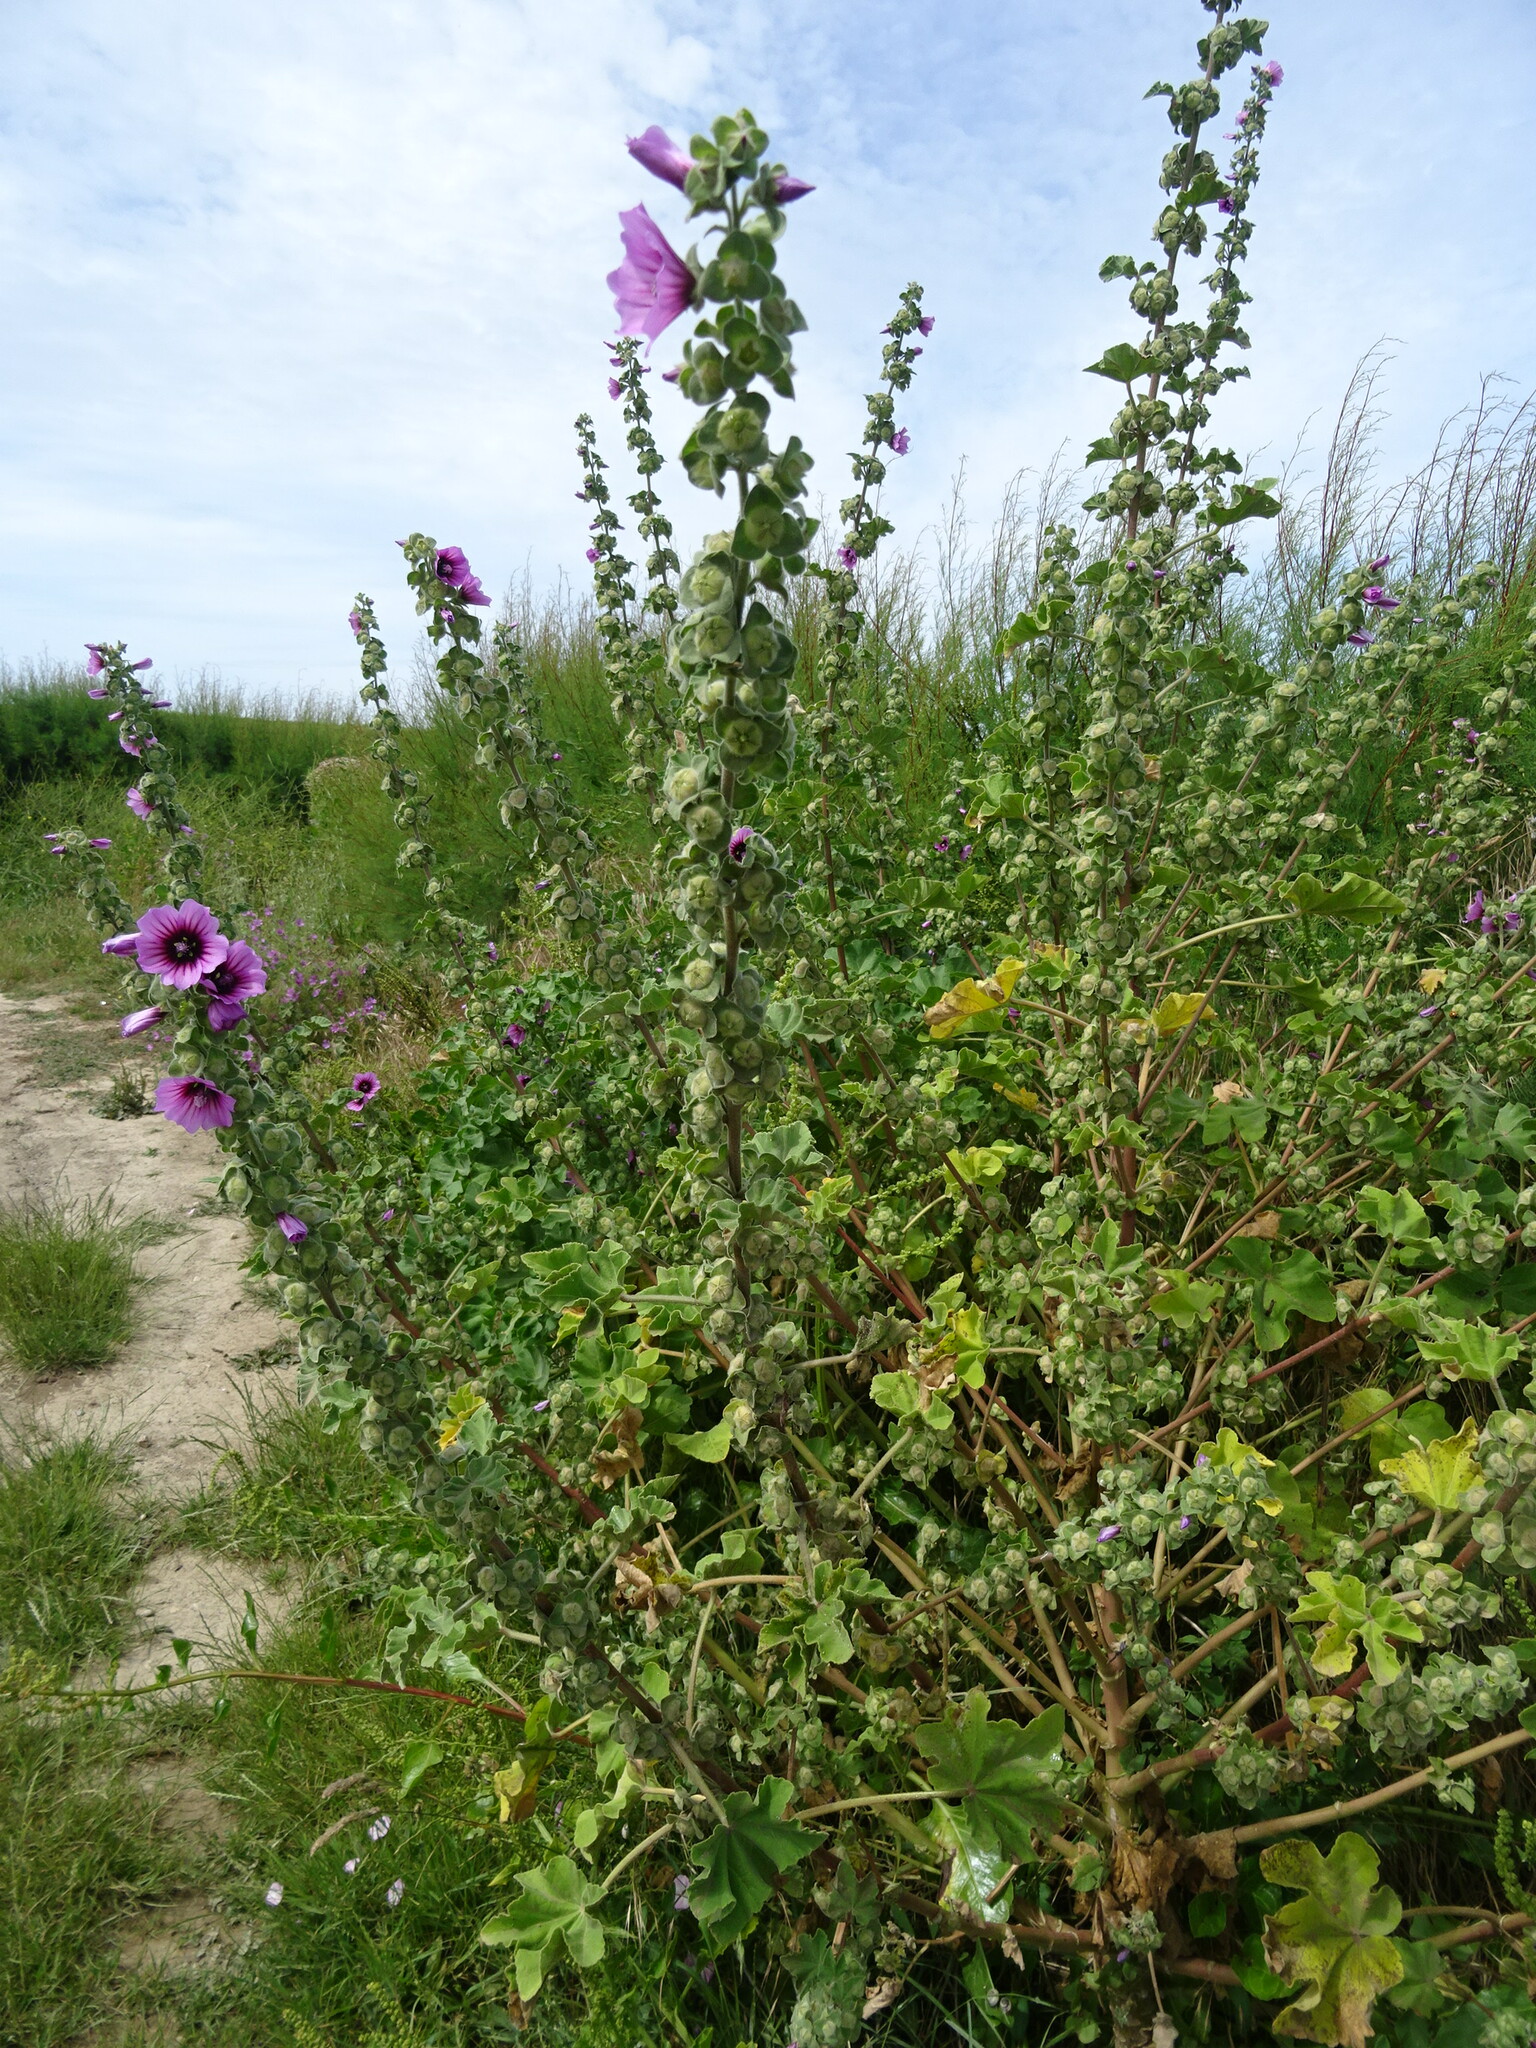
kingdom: Plantae
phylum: Tracheophyta
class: Magnoliopsida
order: Malvales
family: Malvaceae
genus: Malva
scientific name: Malva arborea
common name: Tree mallow
